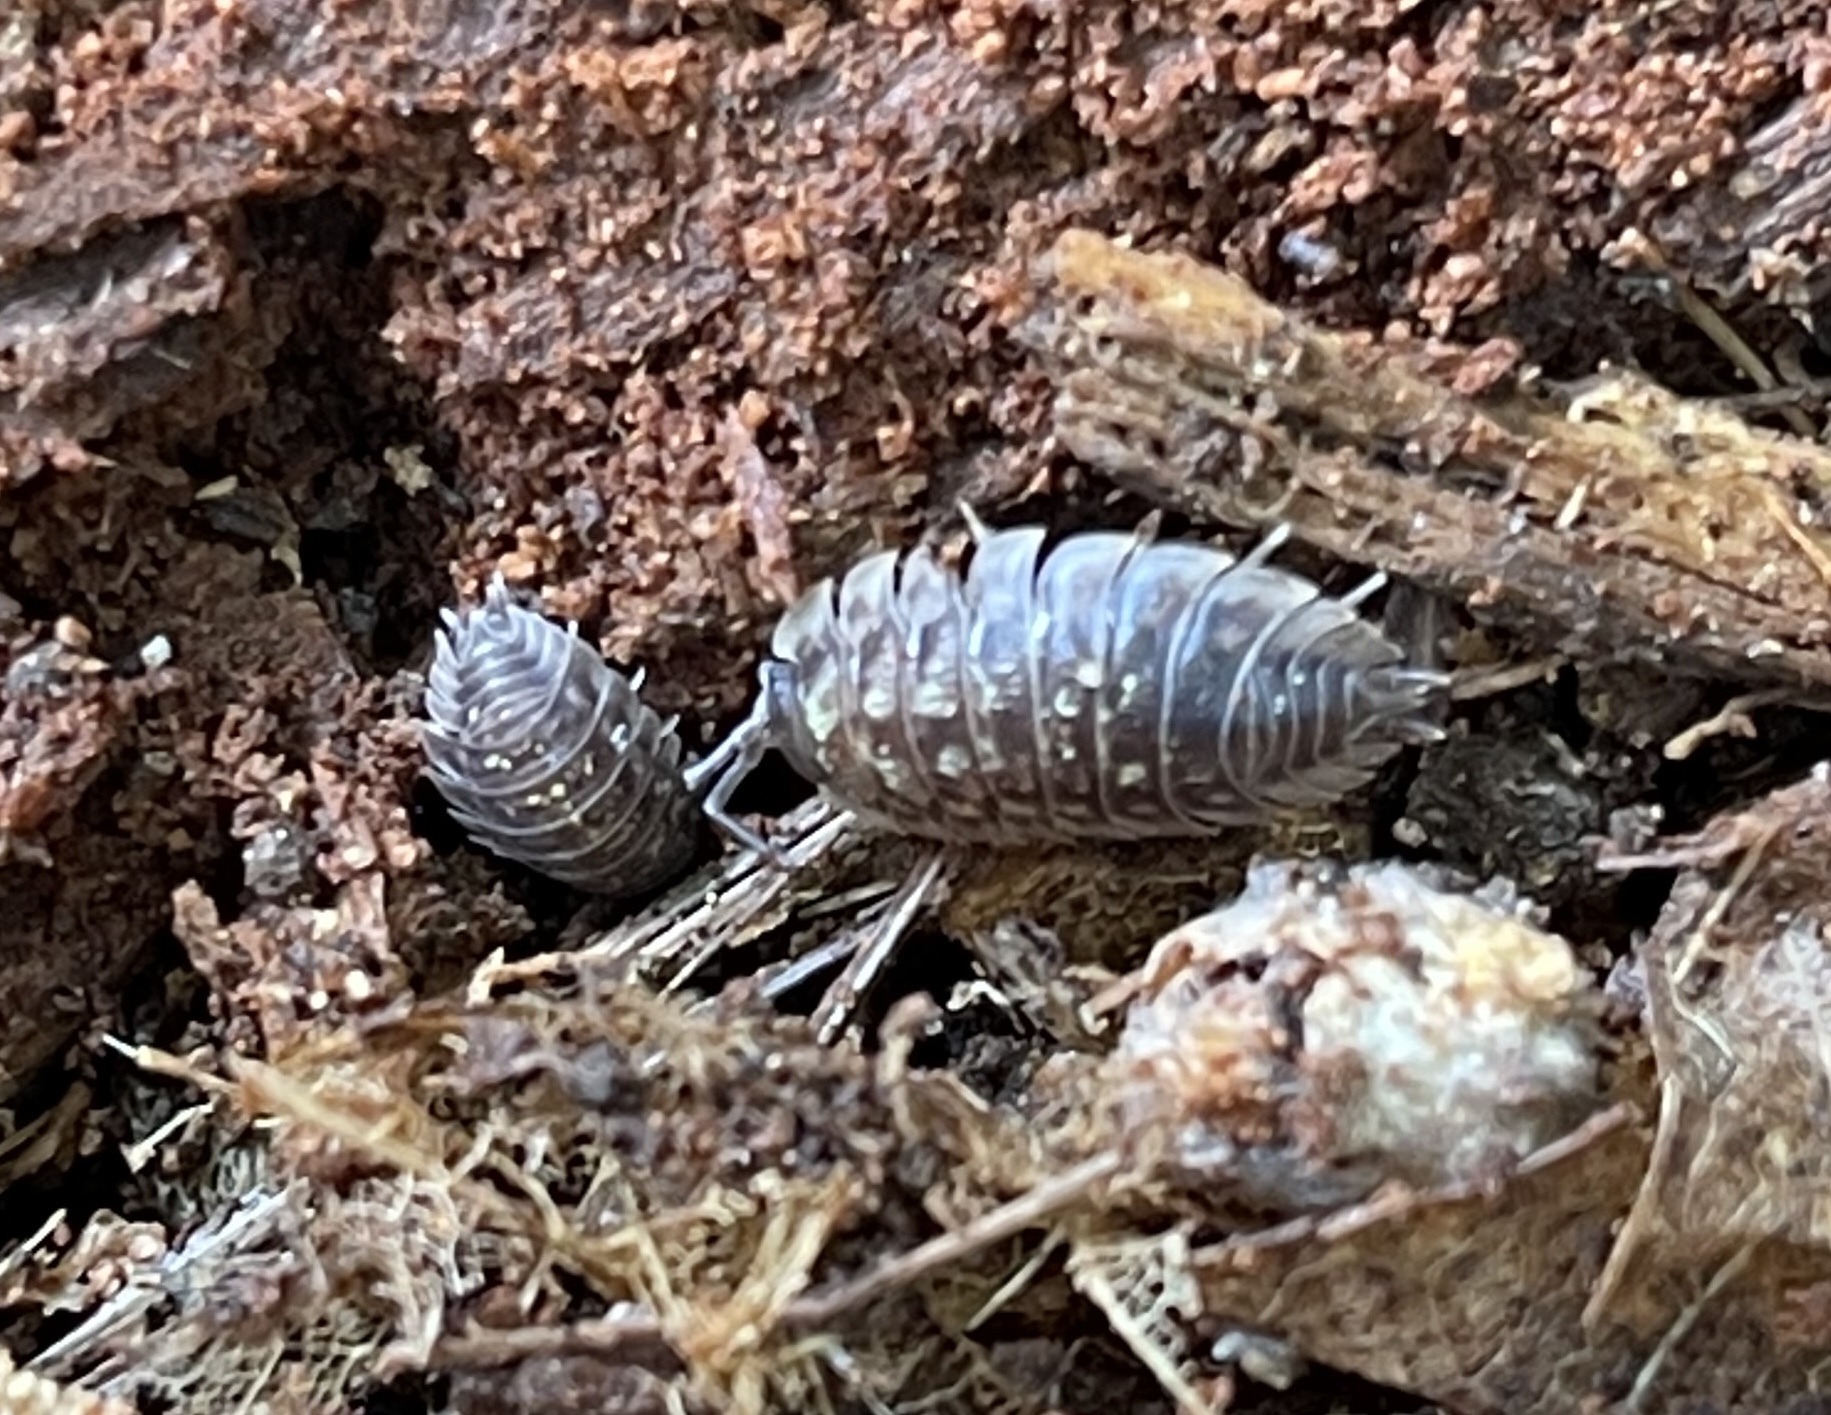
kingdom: Animalia
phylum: Arthropoda
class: Malacostraca
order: Isopoda
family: Oniscidae
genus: Oniscus
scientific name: Oniscus asellus
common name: Common shiny woodlouse
